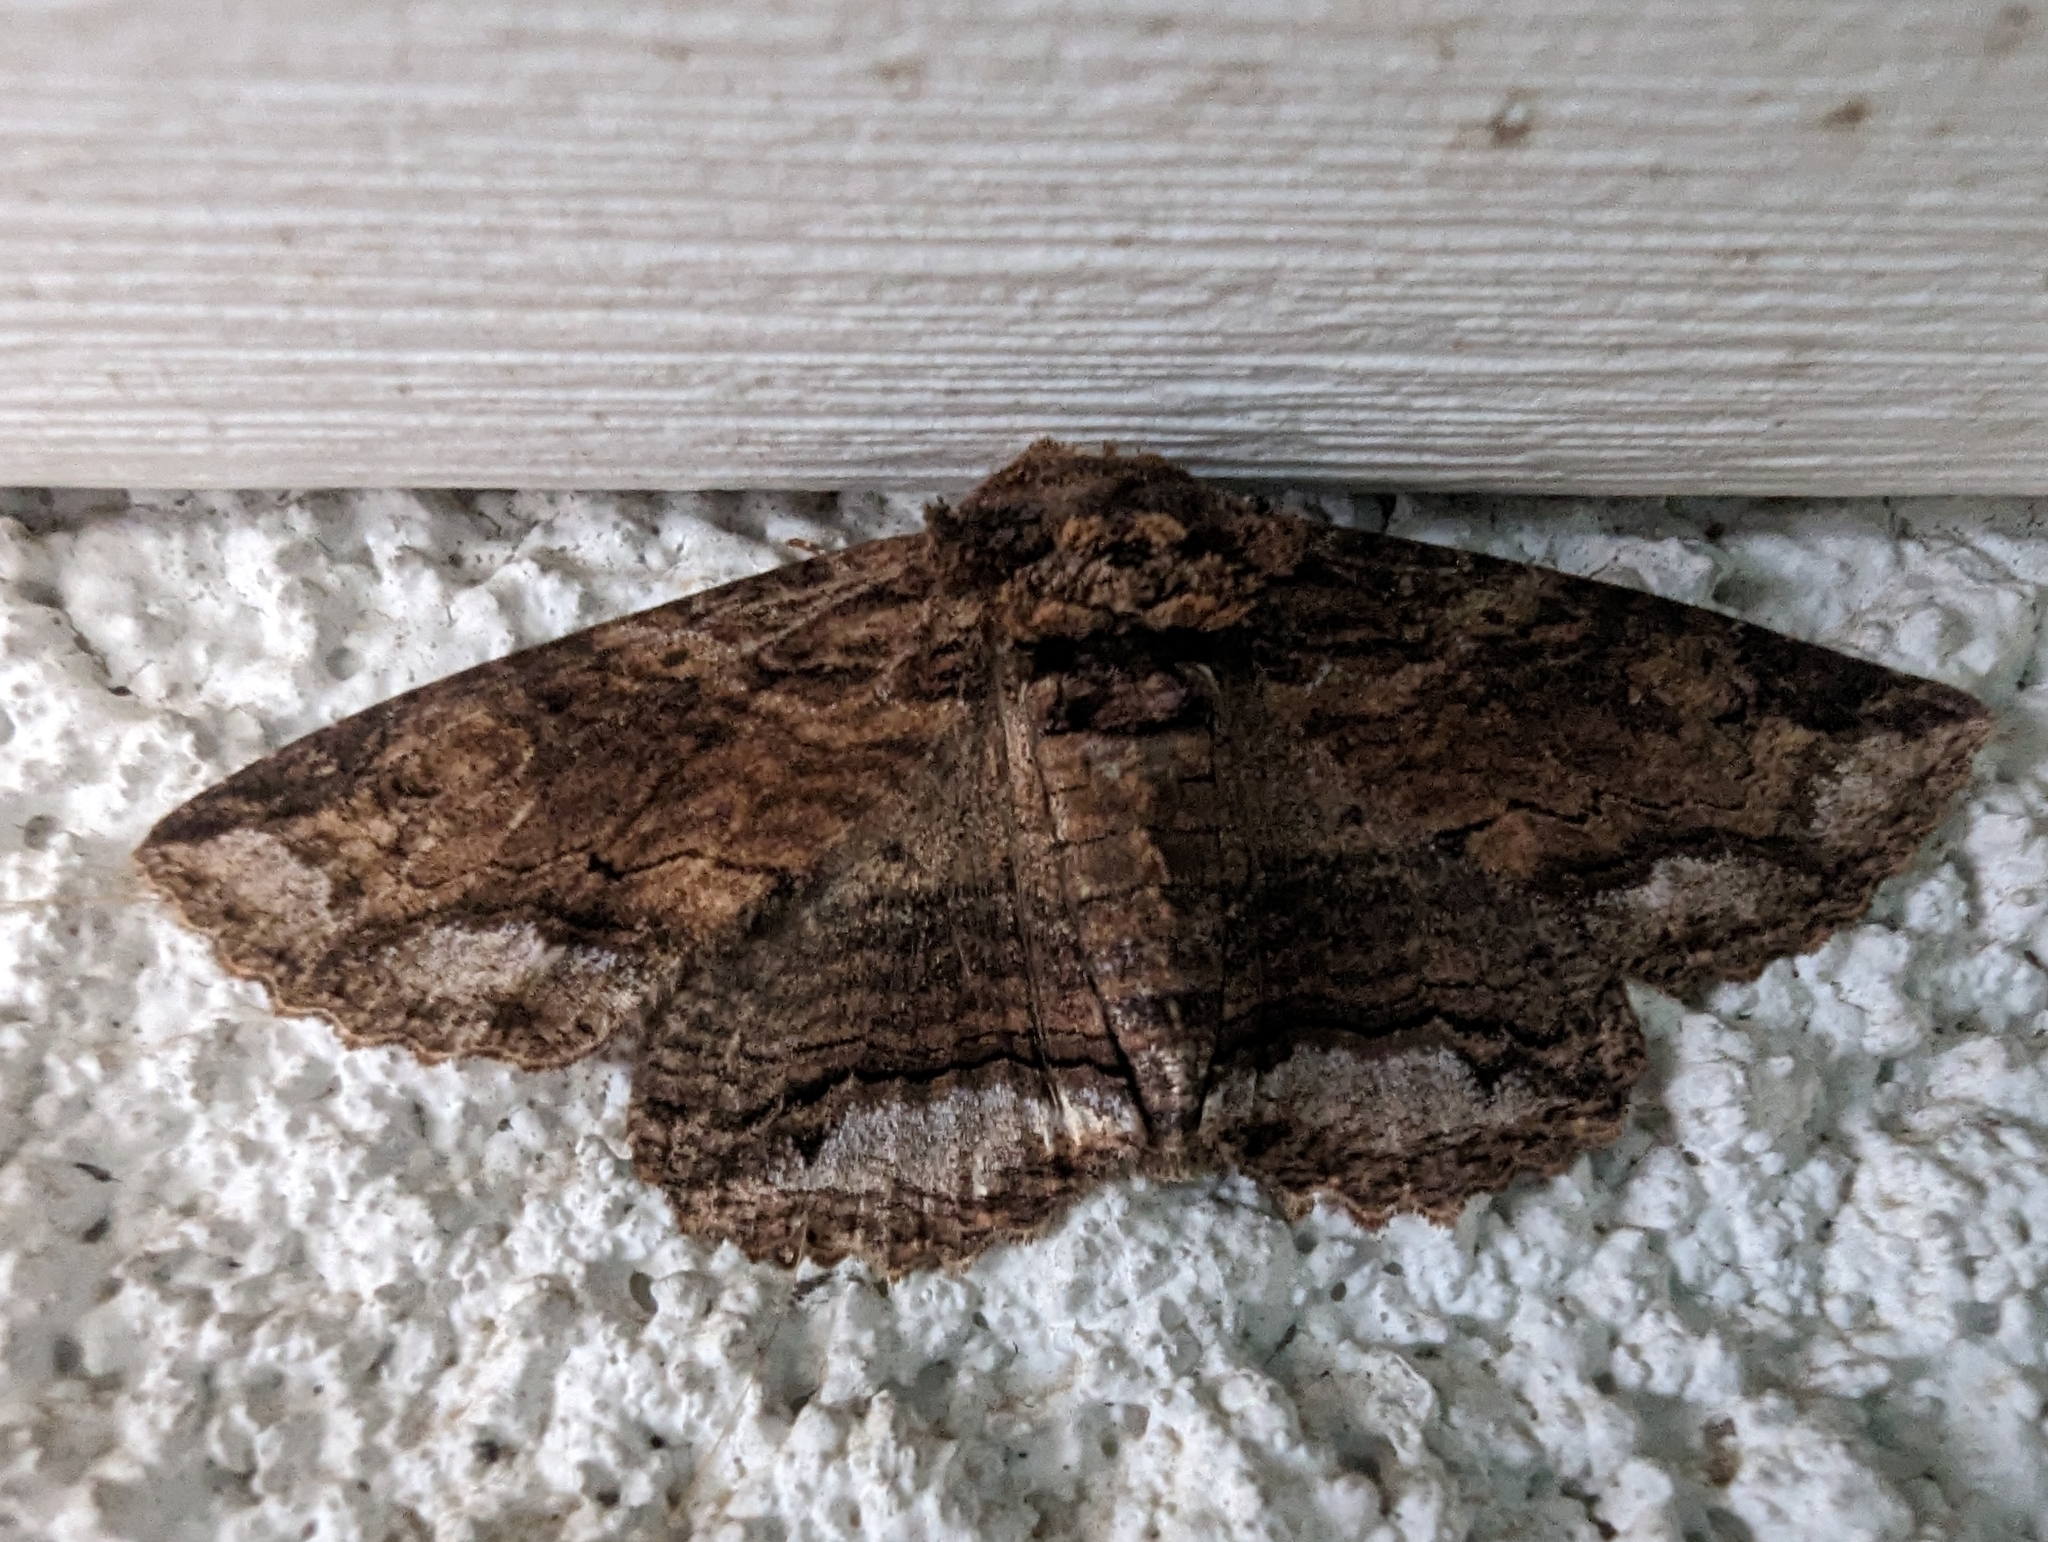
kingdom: Animalia
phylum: Arthropoda
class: Insecta
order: Lepidoptera
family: Erebidae
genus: Zale
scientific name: Zale lunata
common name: Lunate zale moth
